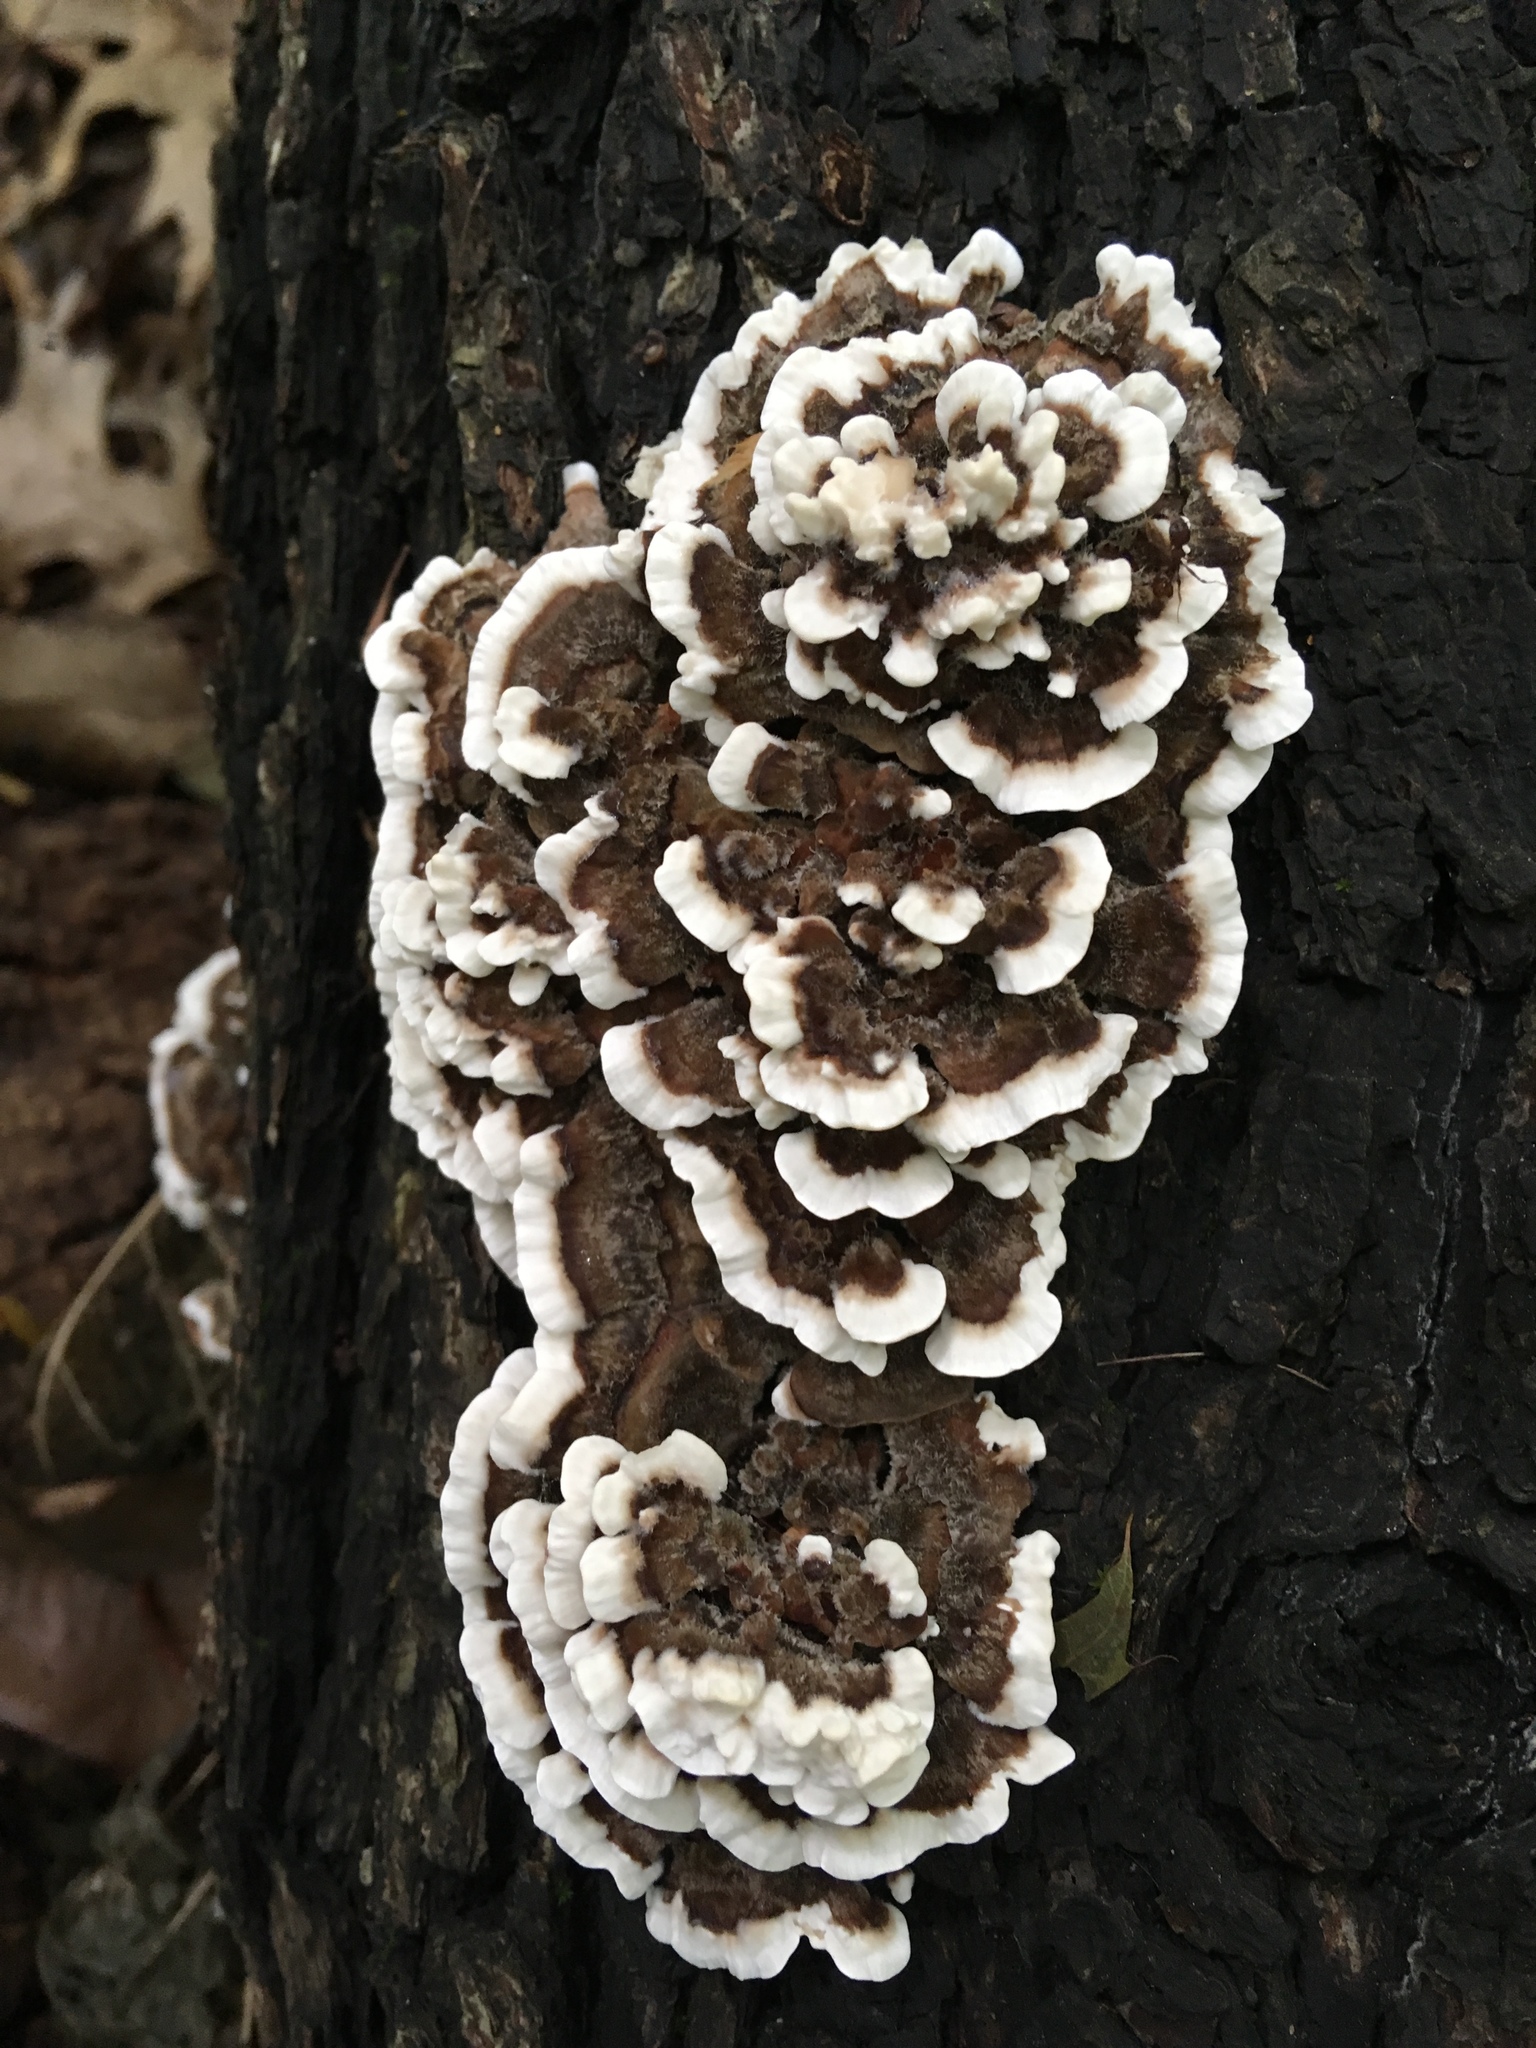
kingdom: Fungi
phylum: Basidiomycota
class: Agaricomycetes
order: Polyporales
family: Polyporaceae
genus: Trametes
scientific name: Trametes versicolor
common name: Turkeytail
